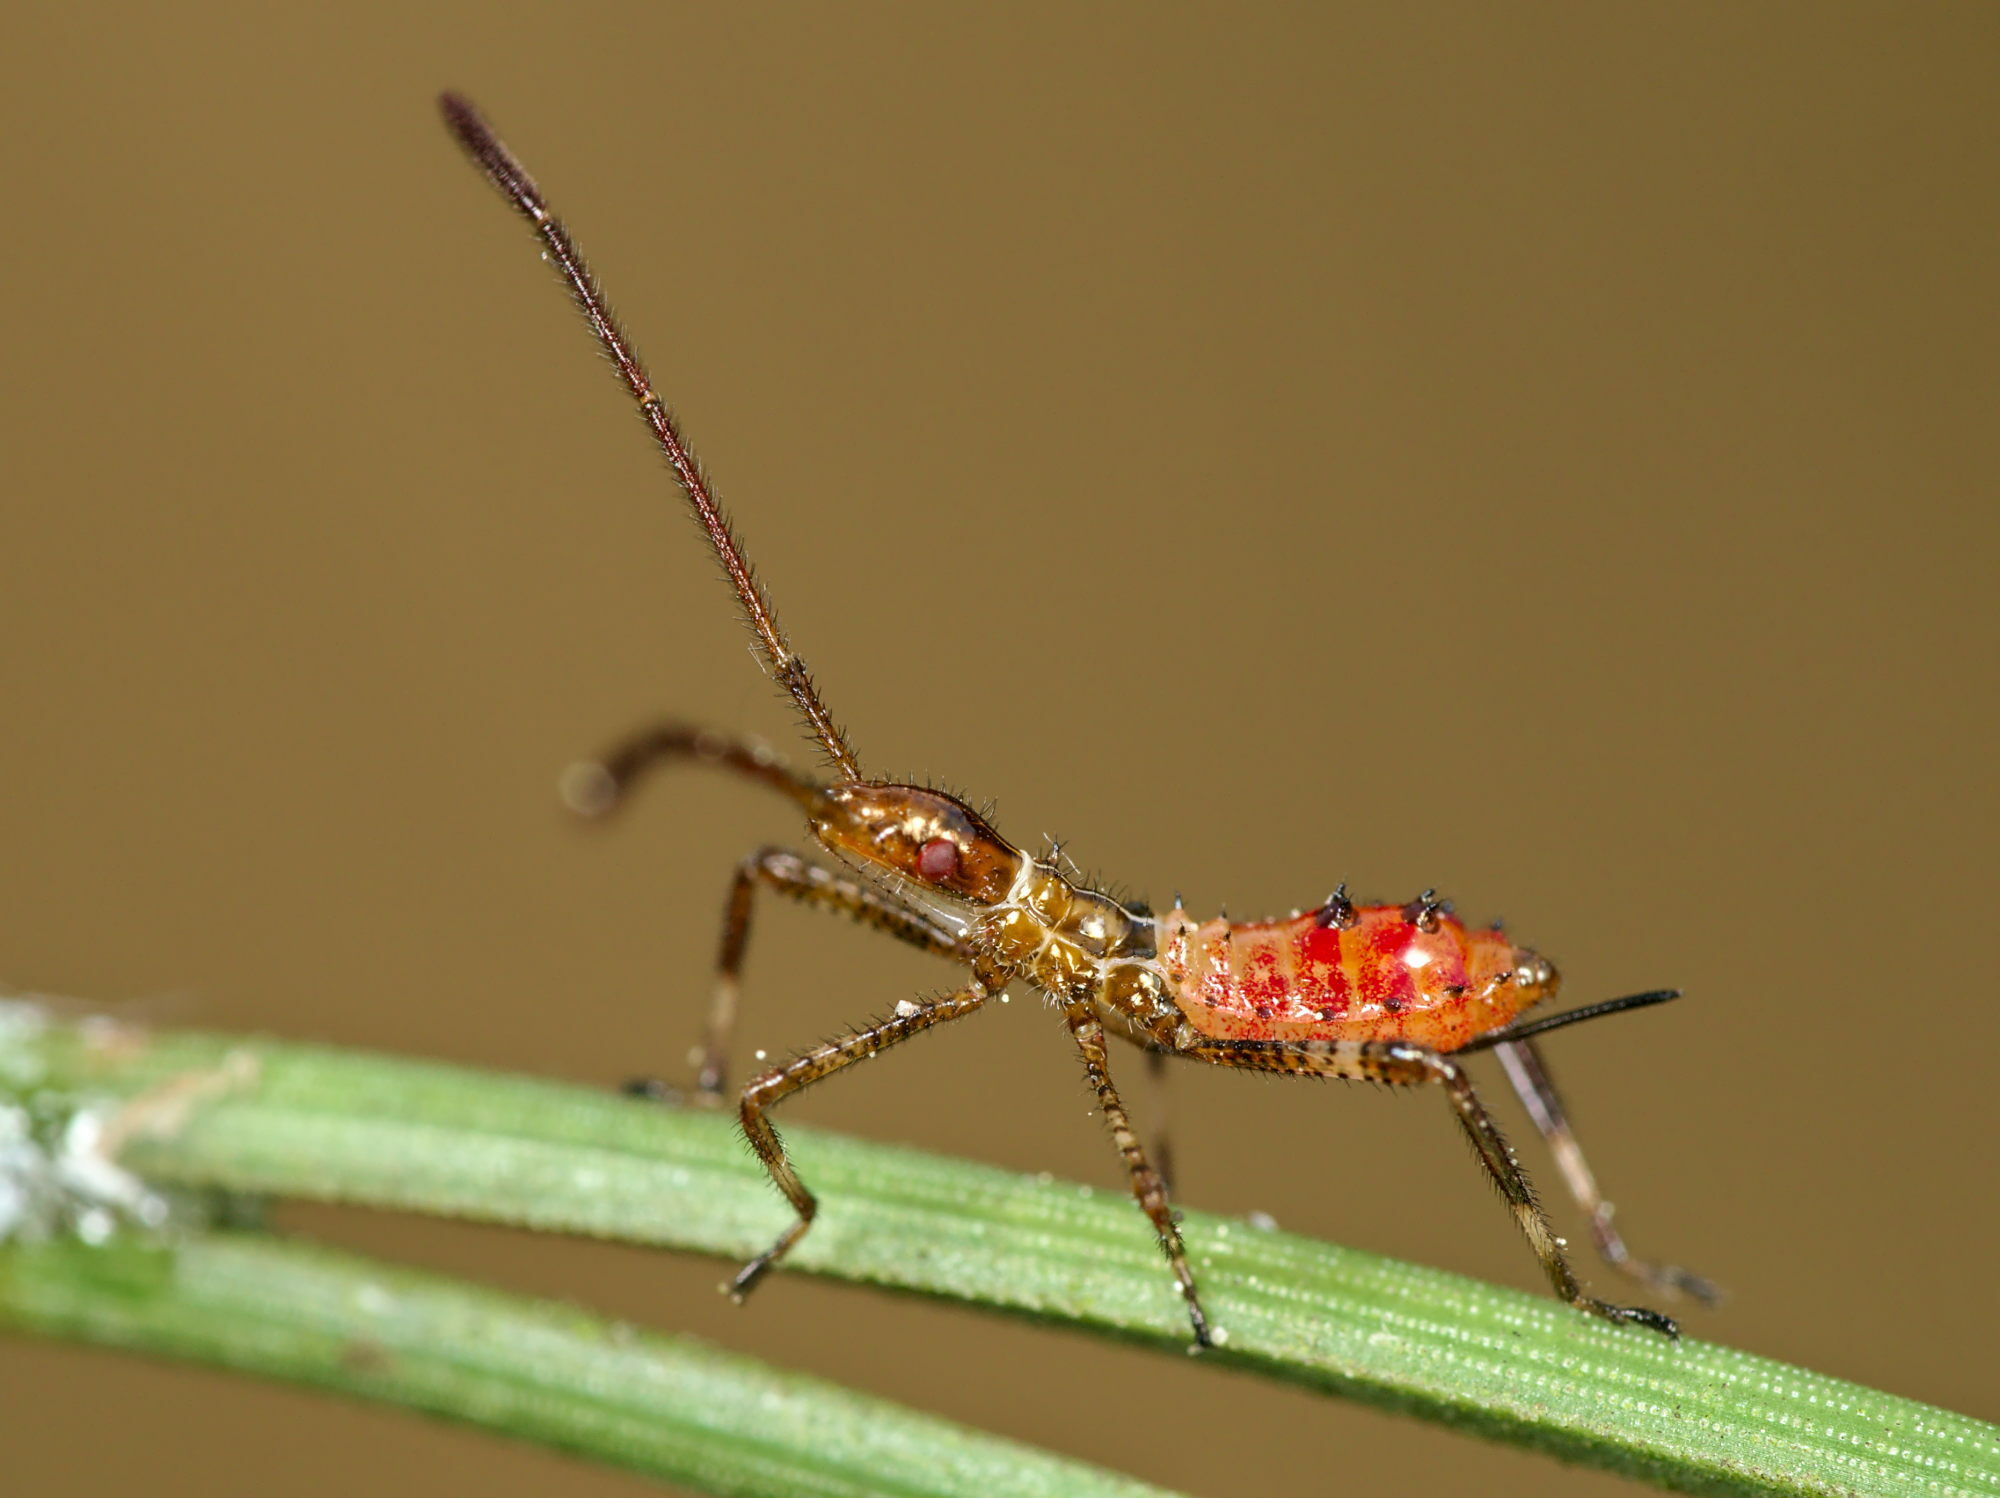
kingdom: Animalia
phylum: Arthropoda
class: Insecta
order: Hemiptera
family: Coreidae
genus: Leptoglossus
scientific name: Leptoglossus occidentalis
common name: Western conifer-seed bug
